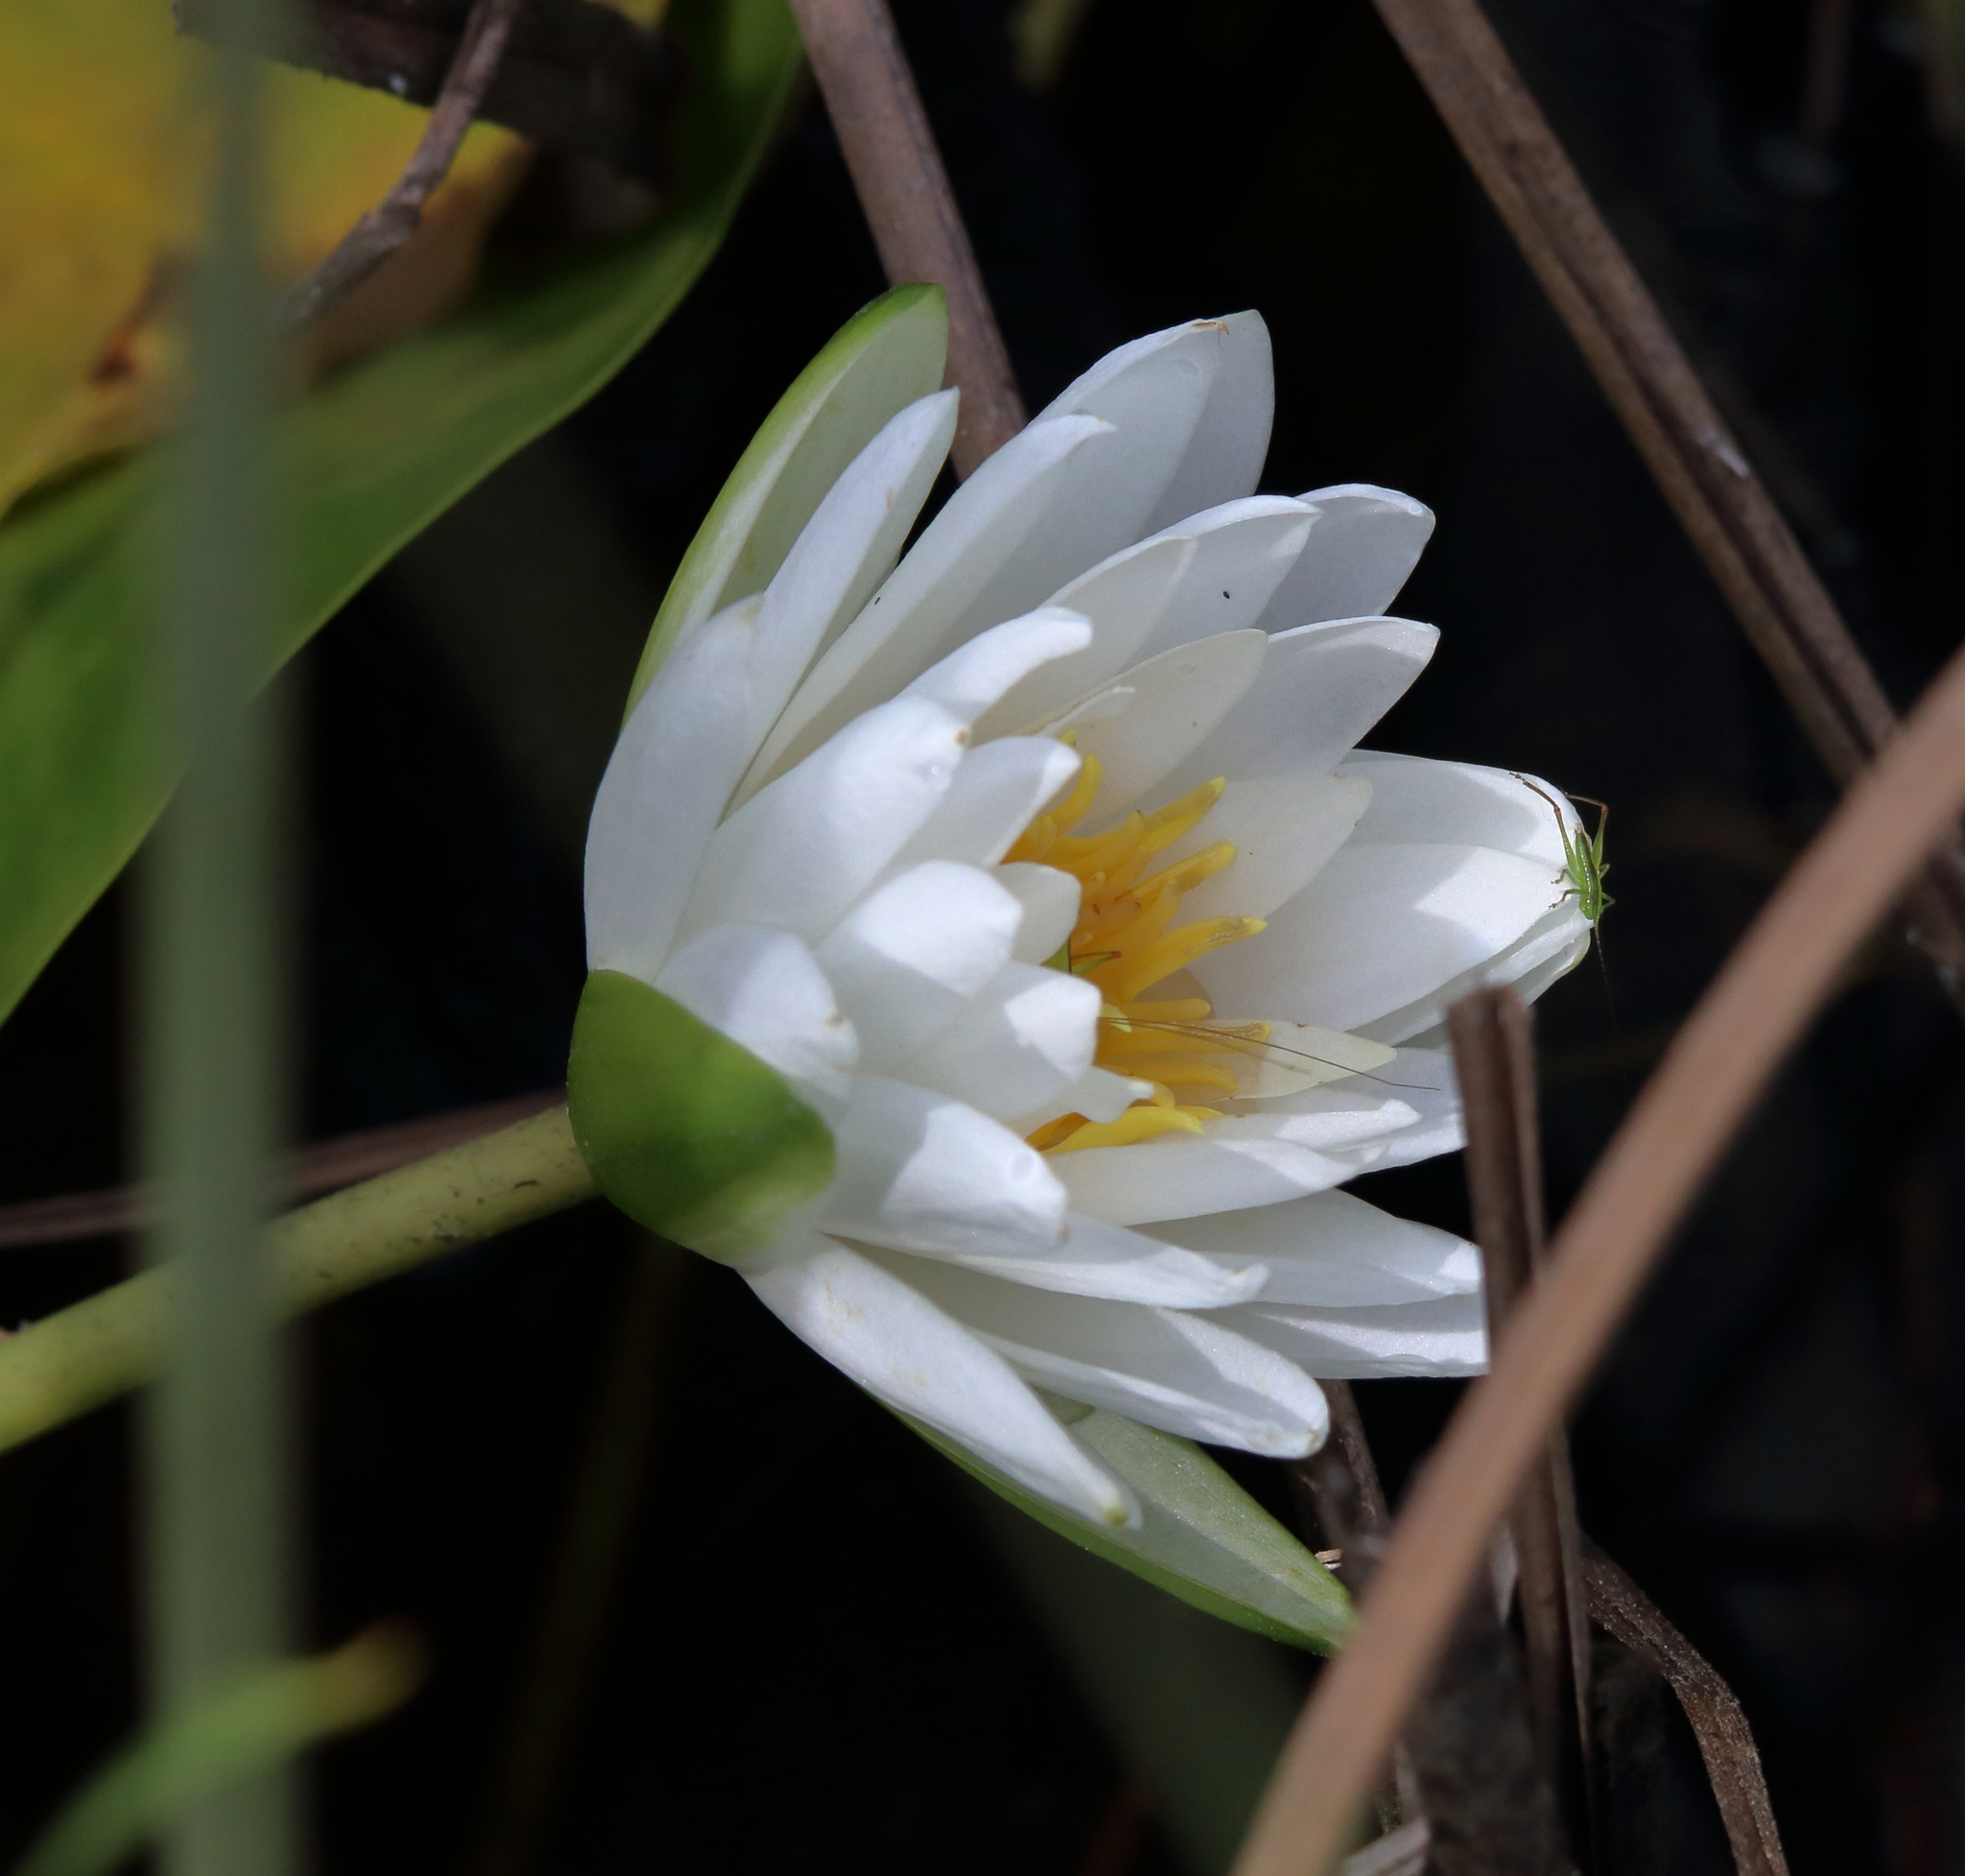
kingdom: Plantae
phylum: Tracheophyta
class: Magnoliopsida
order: Nymphaeales
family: Nymphaeaceae
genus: Nymphaea
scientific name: Nymphaea odorata
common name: Fragrant water-lily
